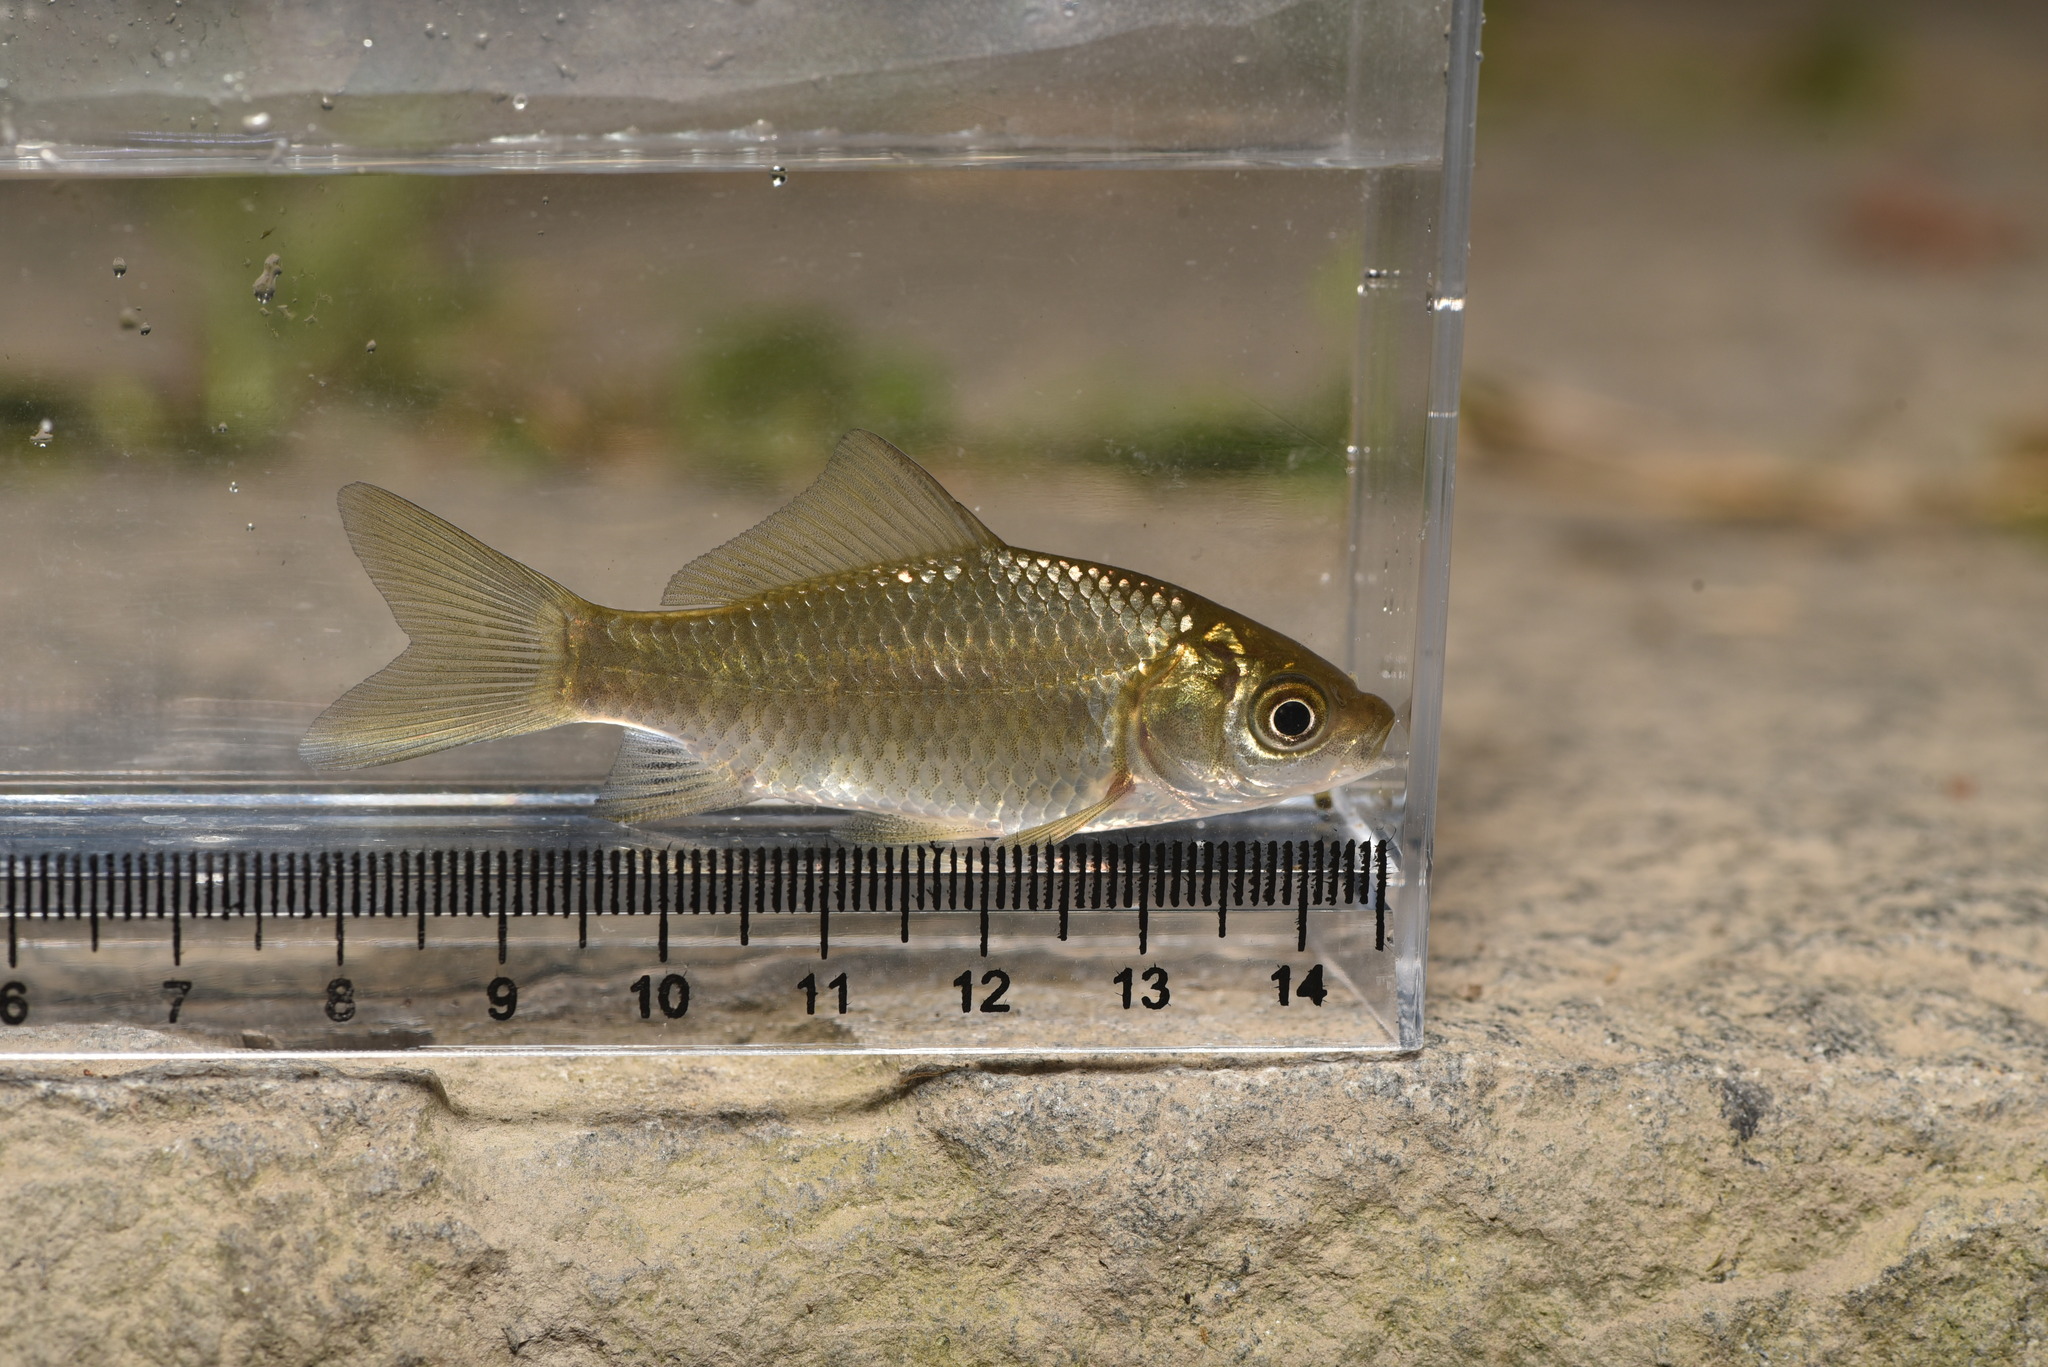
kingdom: Animalia
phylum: Chordata
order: Cypriniformes
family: Cyprinidae
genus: Carassius
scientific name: Carassius auratus
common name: Goldfish
